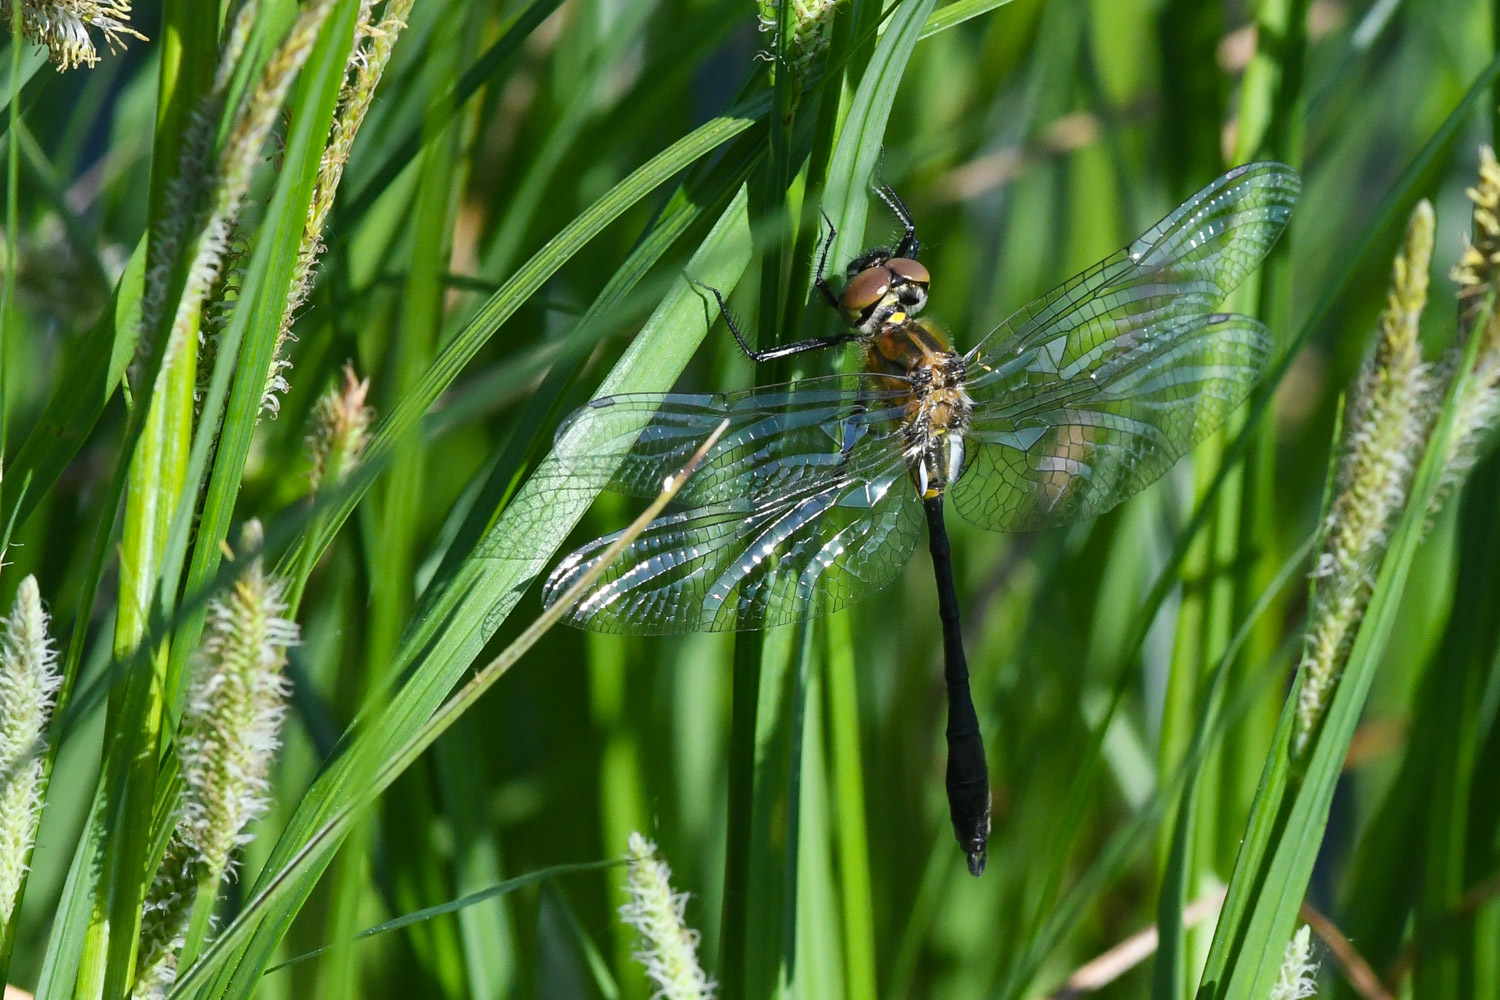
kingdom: Animalia
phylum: Arthropoda
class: Insecta
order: Odonata
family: Corduliidae
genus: Dorocordulia
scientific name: Dorocordulia libera
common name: Racket-tailed emerald
